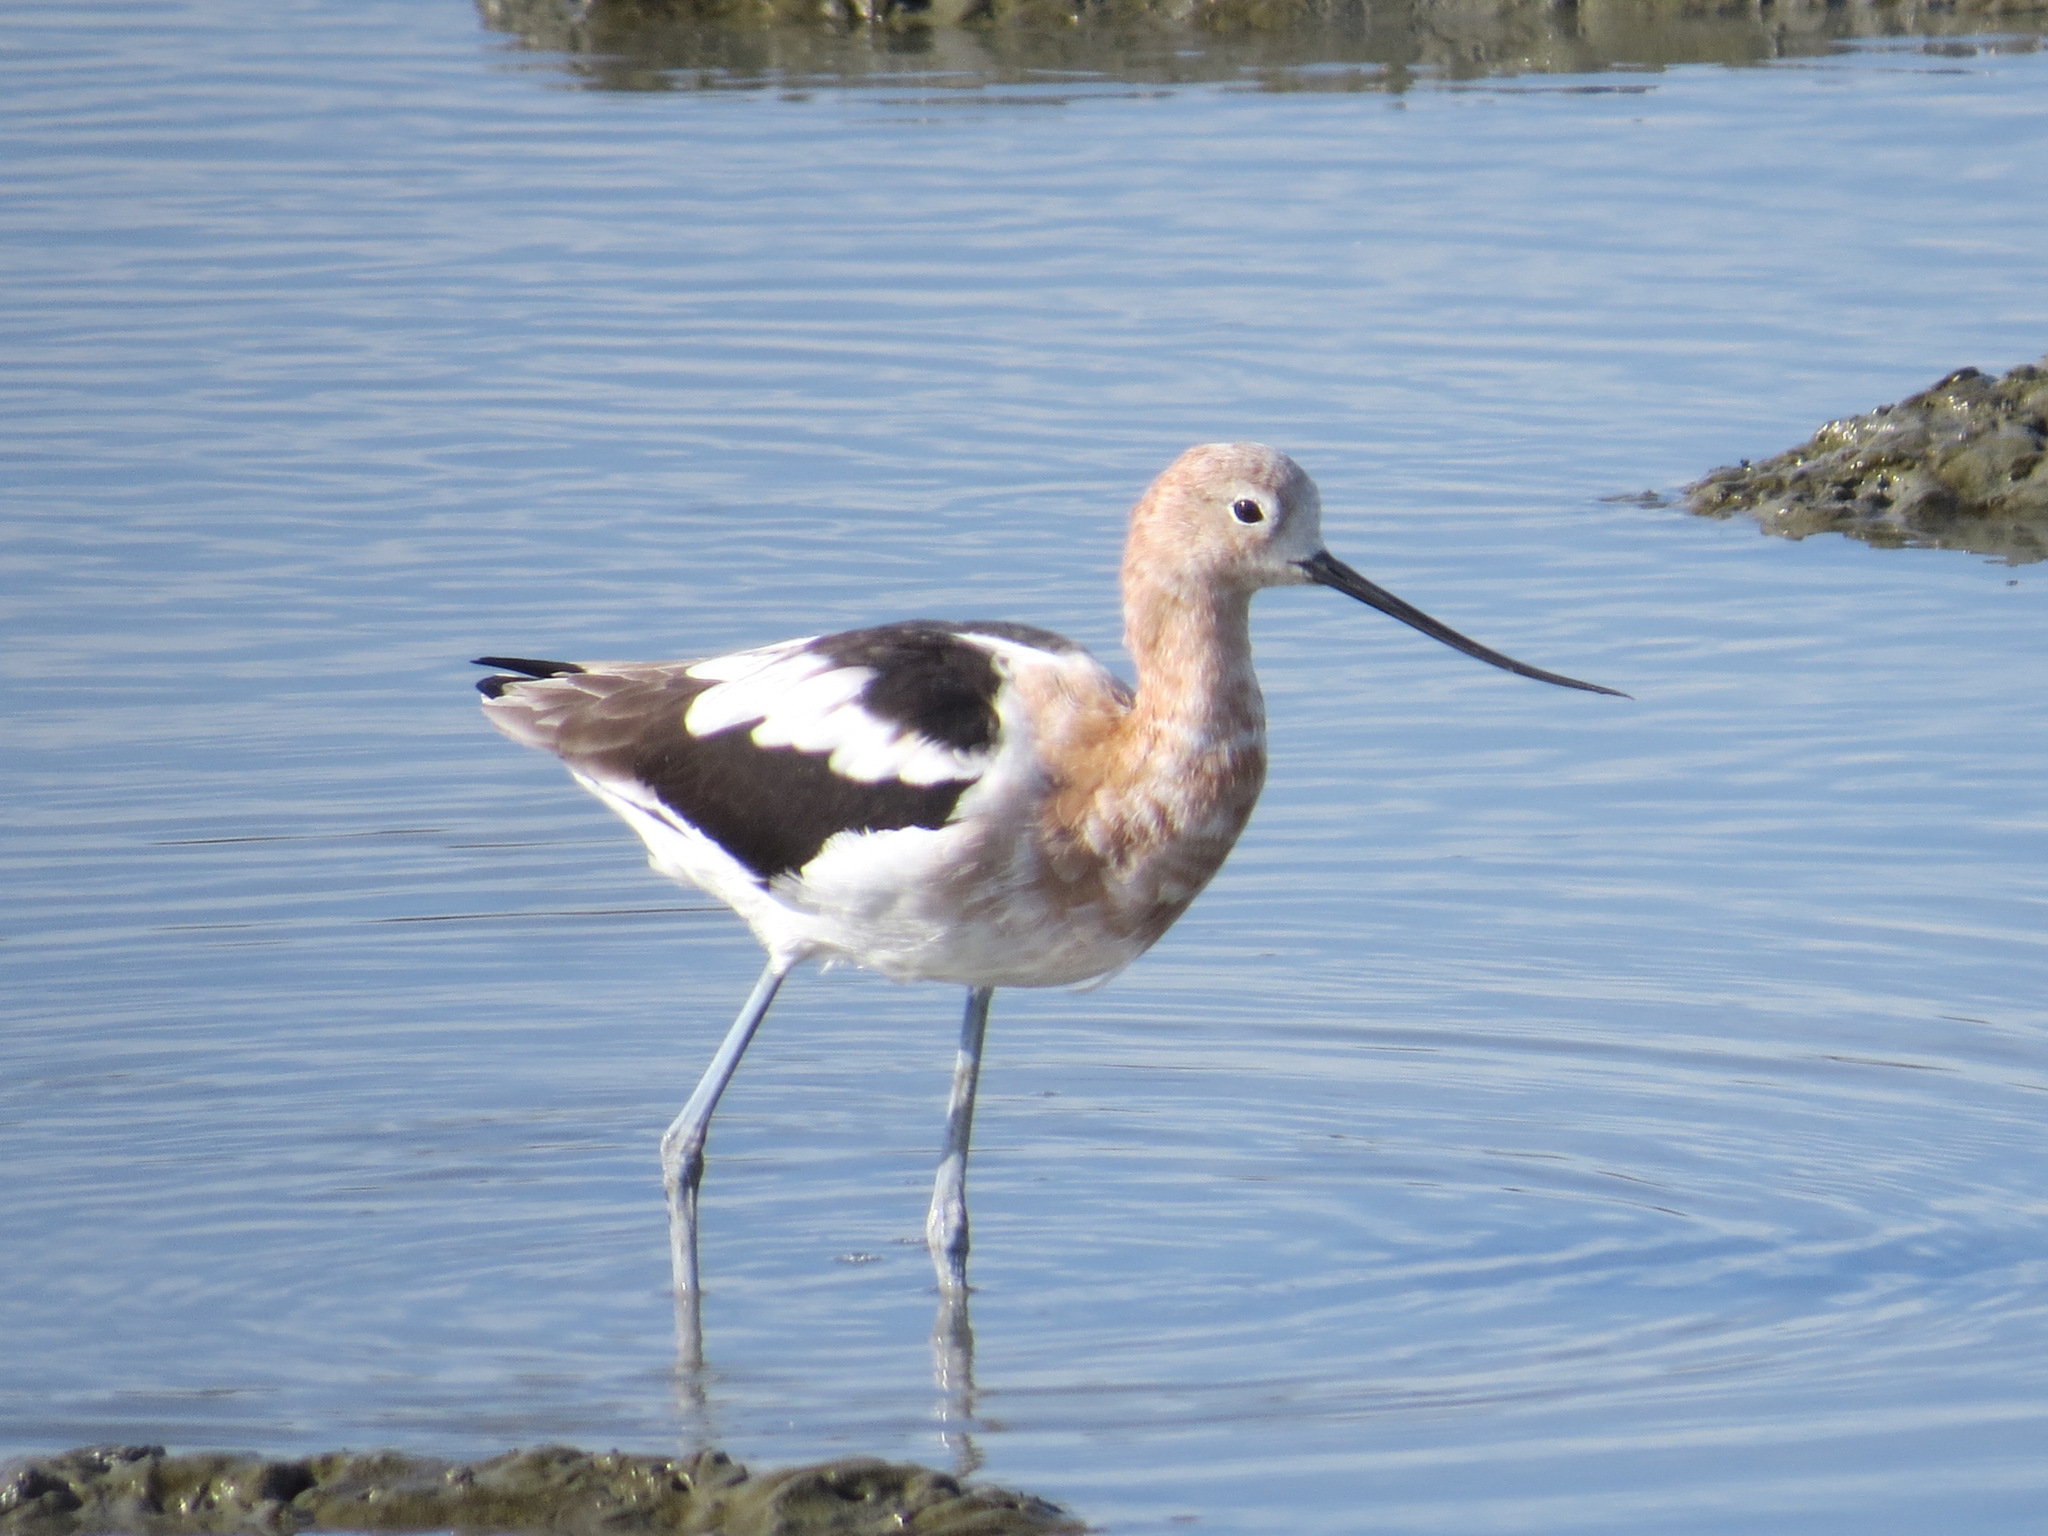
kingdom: Animalia
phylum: Chordata
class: Aves
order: Charadriiformes
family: Recurvirostridae
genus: Recurvirostra
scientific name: Recurvirostra americana
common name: American avocet
